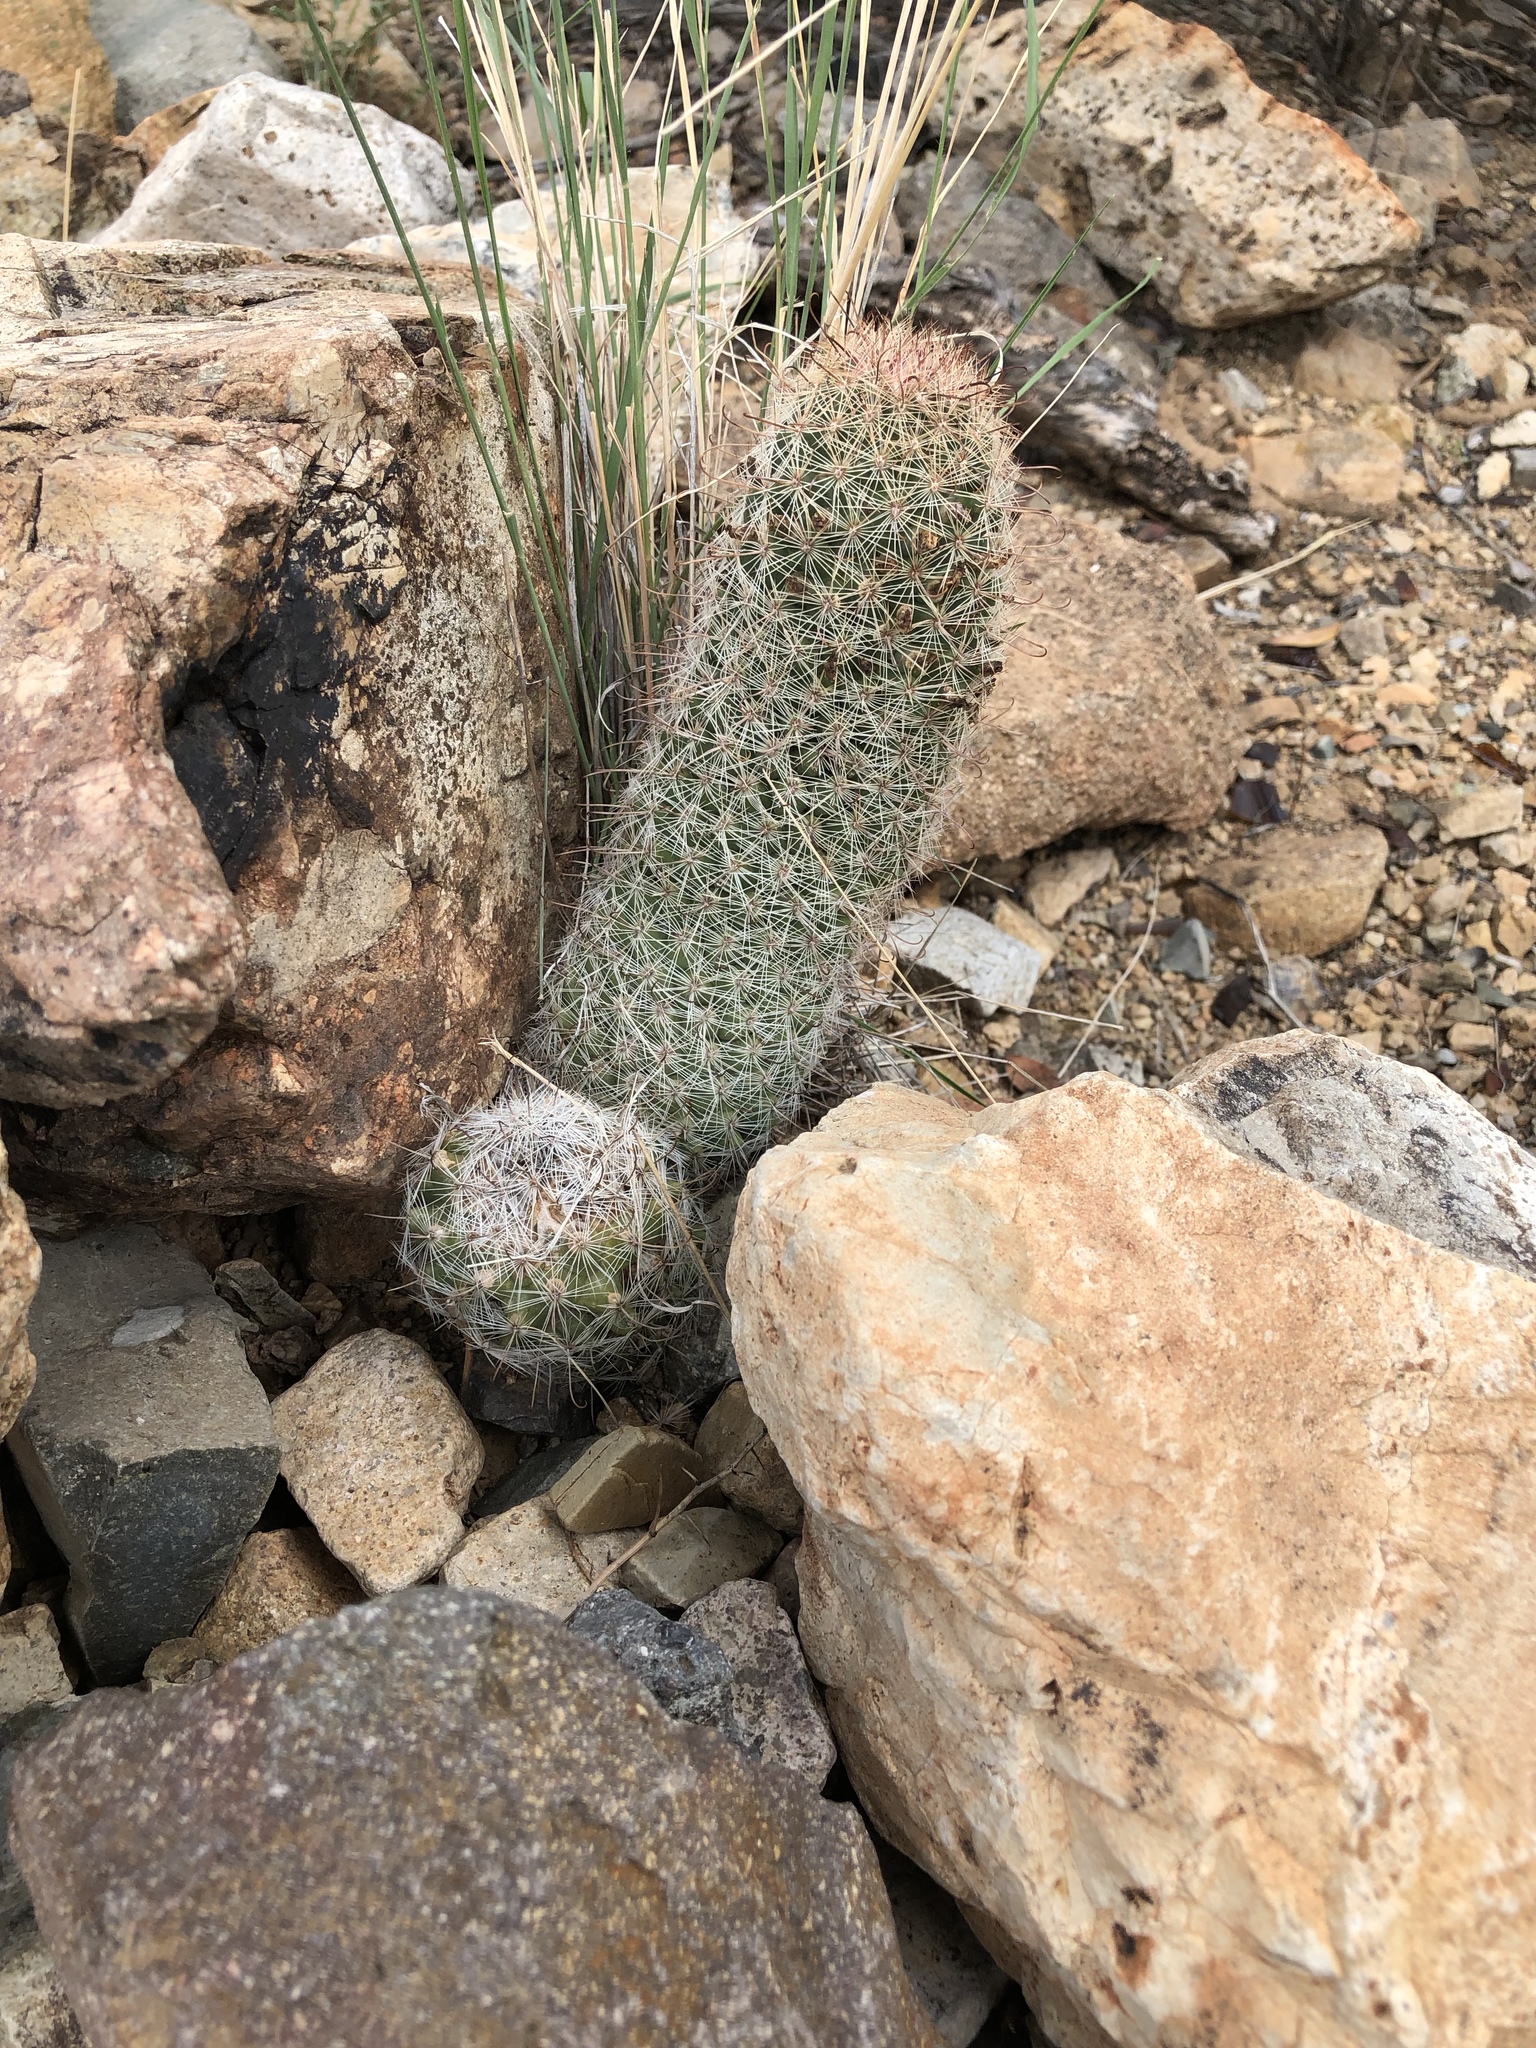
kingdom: Plantae
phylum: Tracheophyta
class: Magnoliopsida
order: Caryophyllales
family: Cactaceae
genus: Cochemiea
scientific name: Cochemiea grahamii
